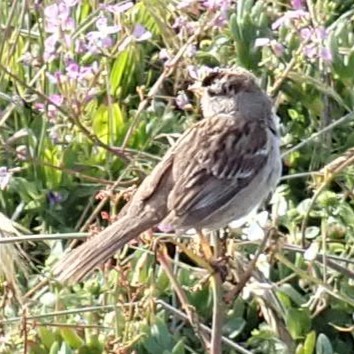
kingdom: Animalia
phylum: Chordata
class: Aves
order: Passeriformes
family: Passerellidae
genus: Zonotrichia
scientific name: Zonotrichia leucophrys
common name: White-crowned sparrow
